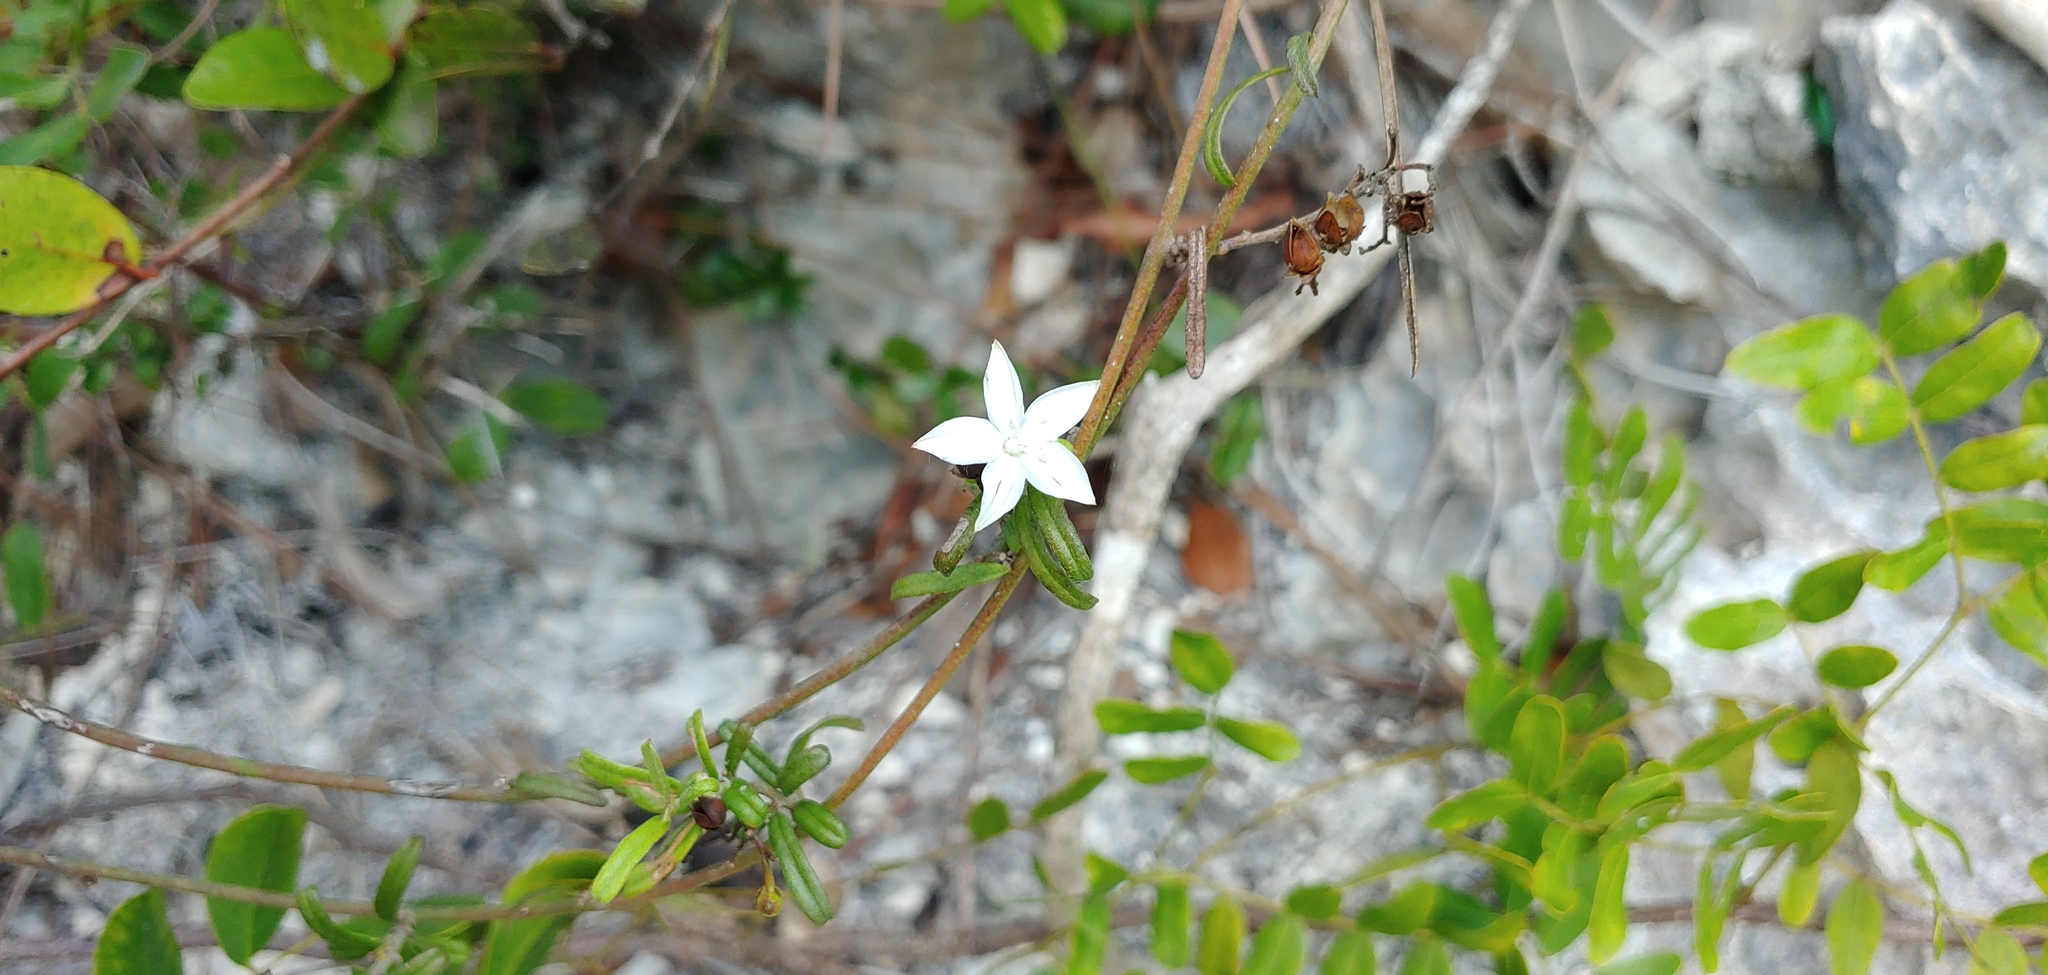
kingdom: Plantae
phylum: Tracheophyta
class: Magnoliopsida
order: Solanales
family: Convolvulaceae
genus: Jacquemontia
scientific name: Jacquemontia havanensis
